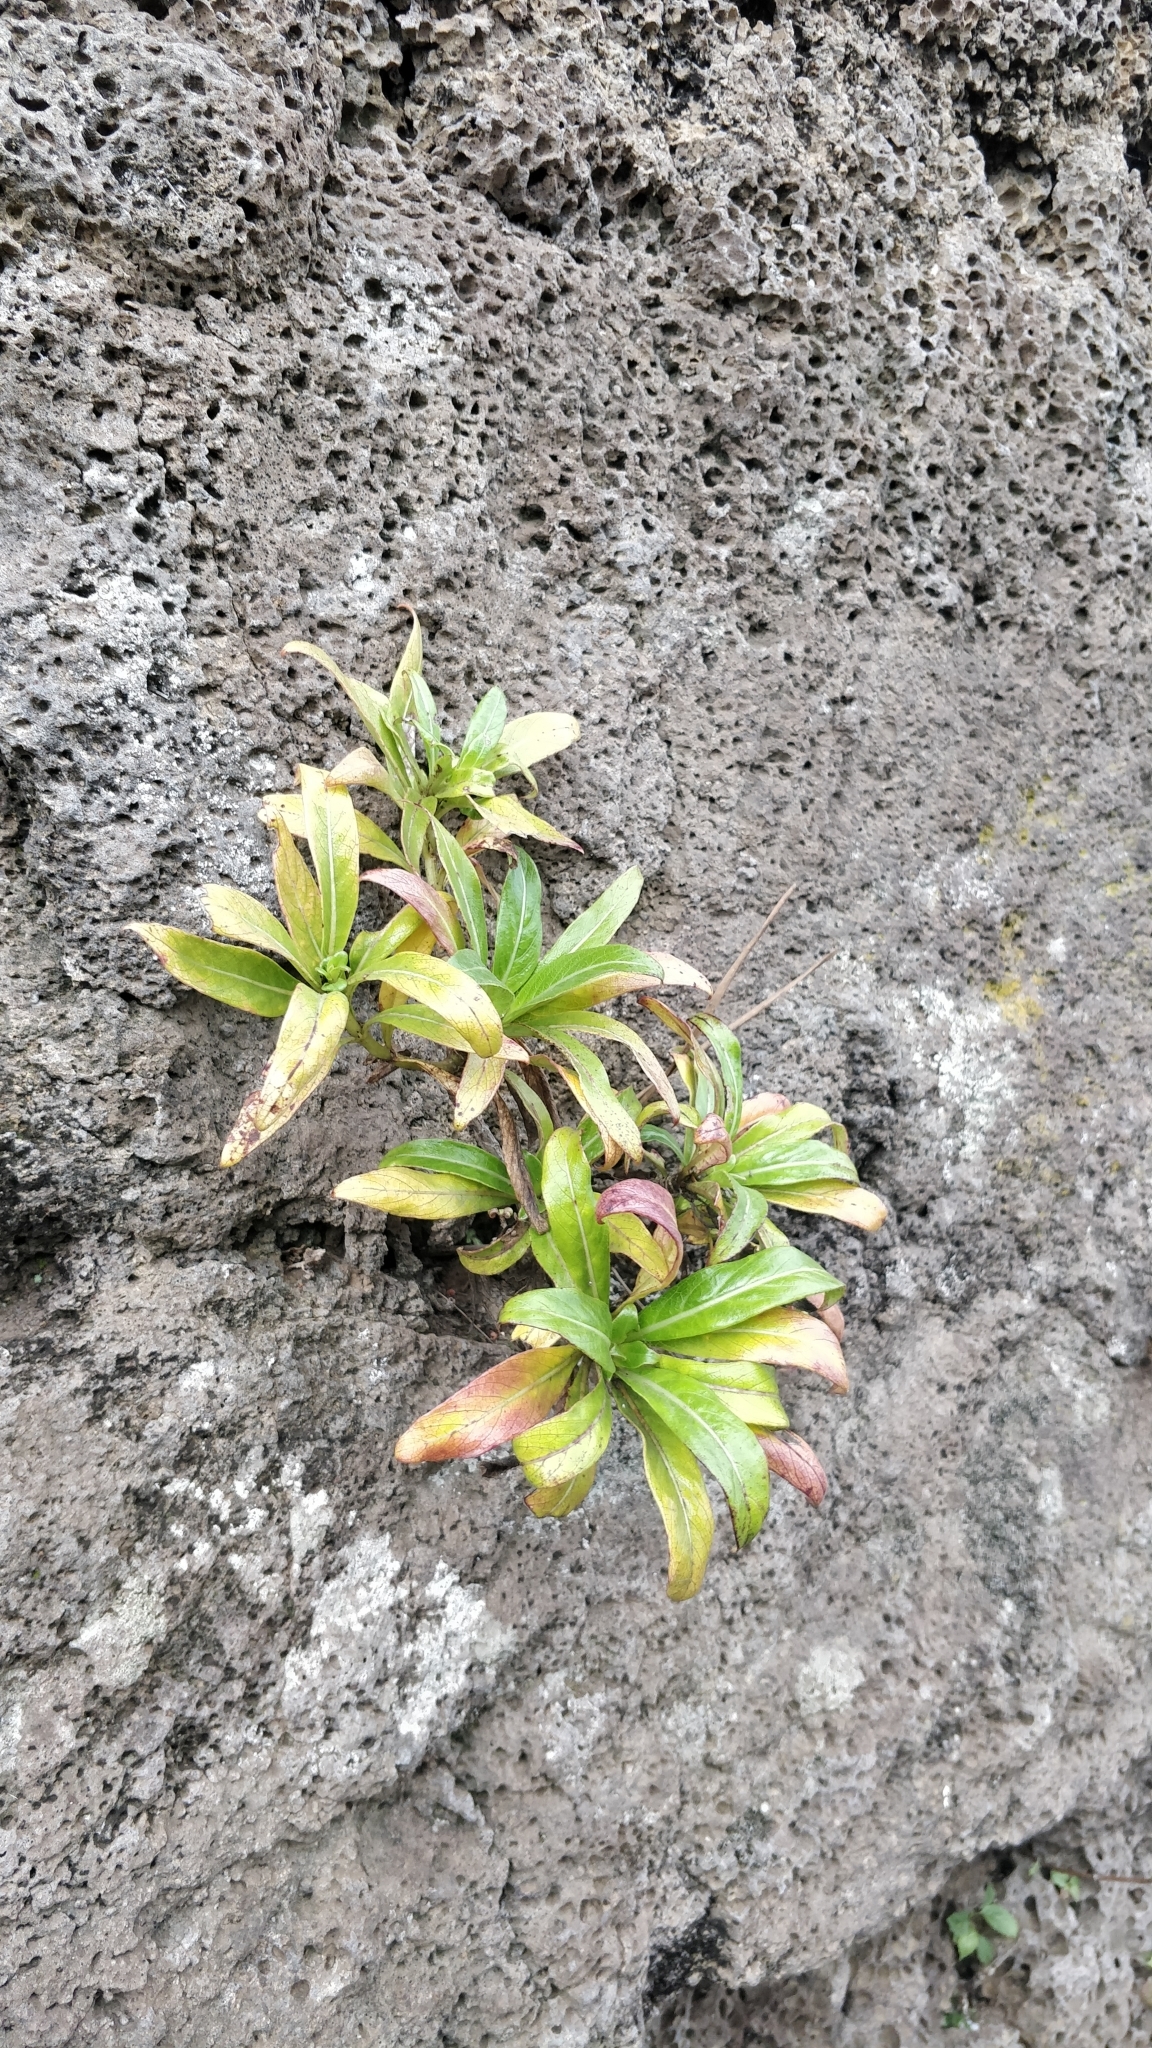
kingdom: Plantae
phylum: Tracheophyta
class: Magnoliopsida
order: Gentianales
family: Rubiaceae
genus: Phyllis
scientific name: Phyllis nobla
